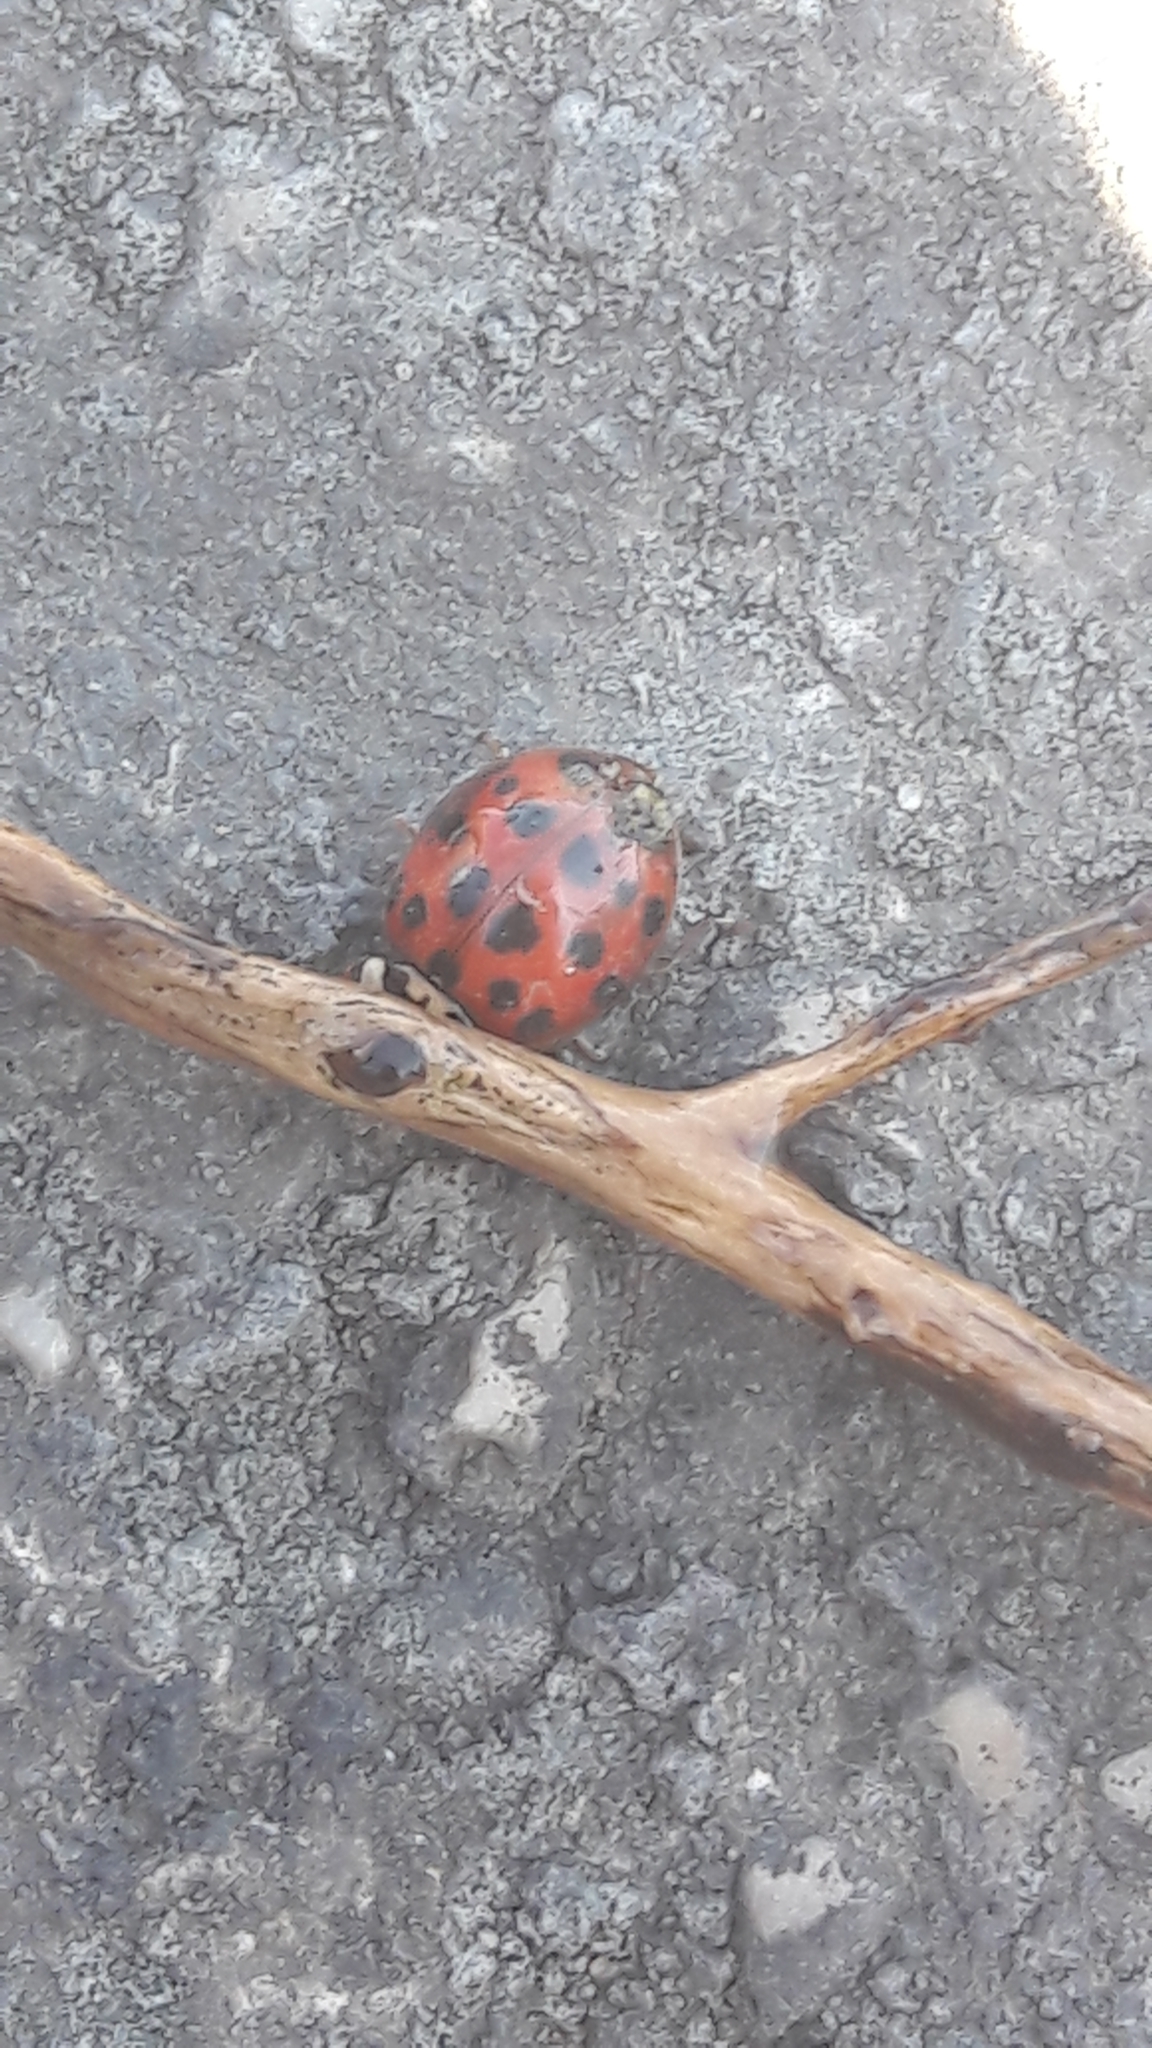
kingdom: Animalia
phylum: Arthropoda
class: Insecta
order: Coleoptera
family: Coccinellidae
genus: Harmonia
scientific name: Harmonia axyridis
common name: Harlequin ladybird
